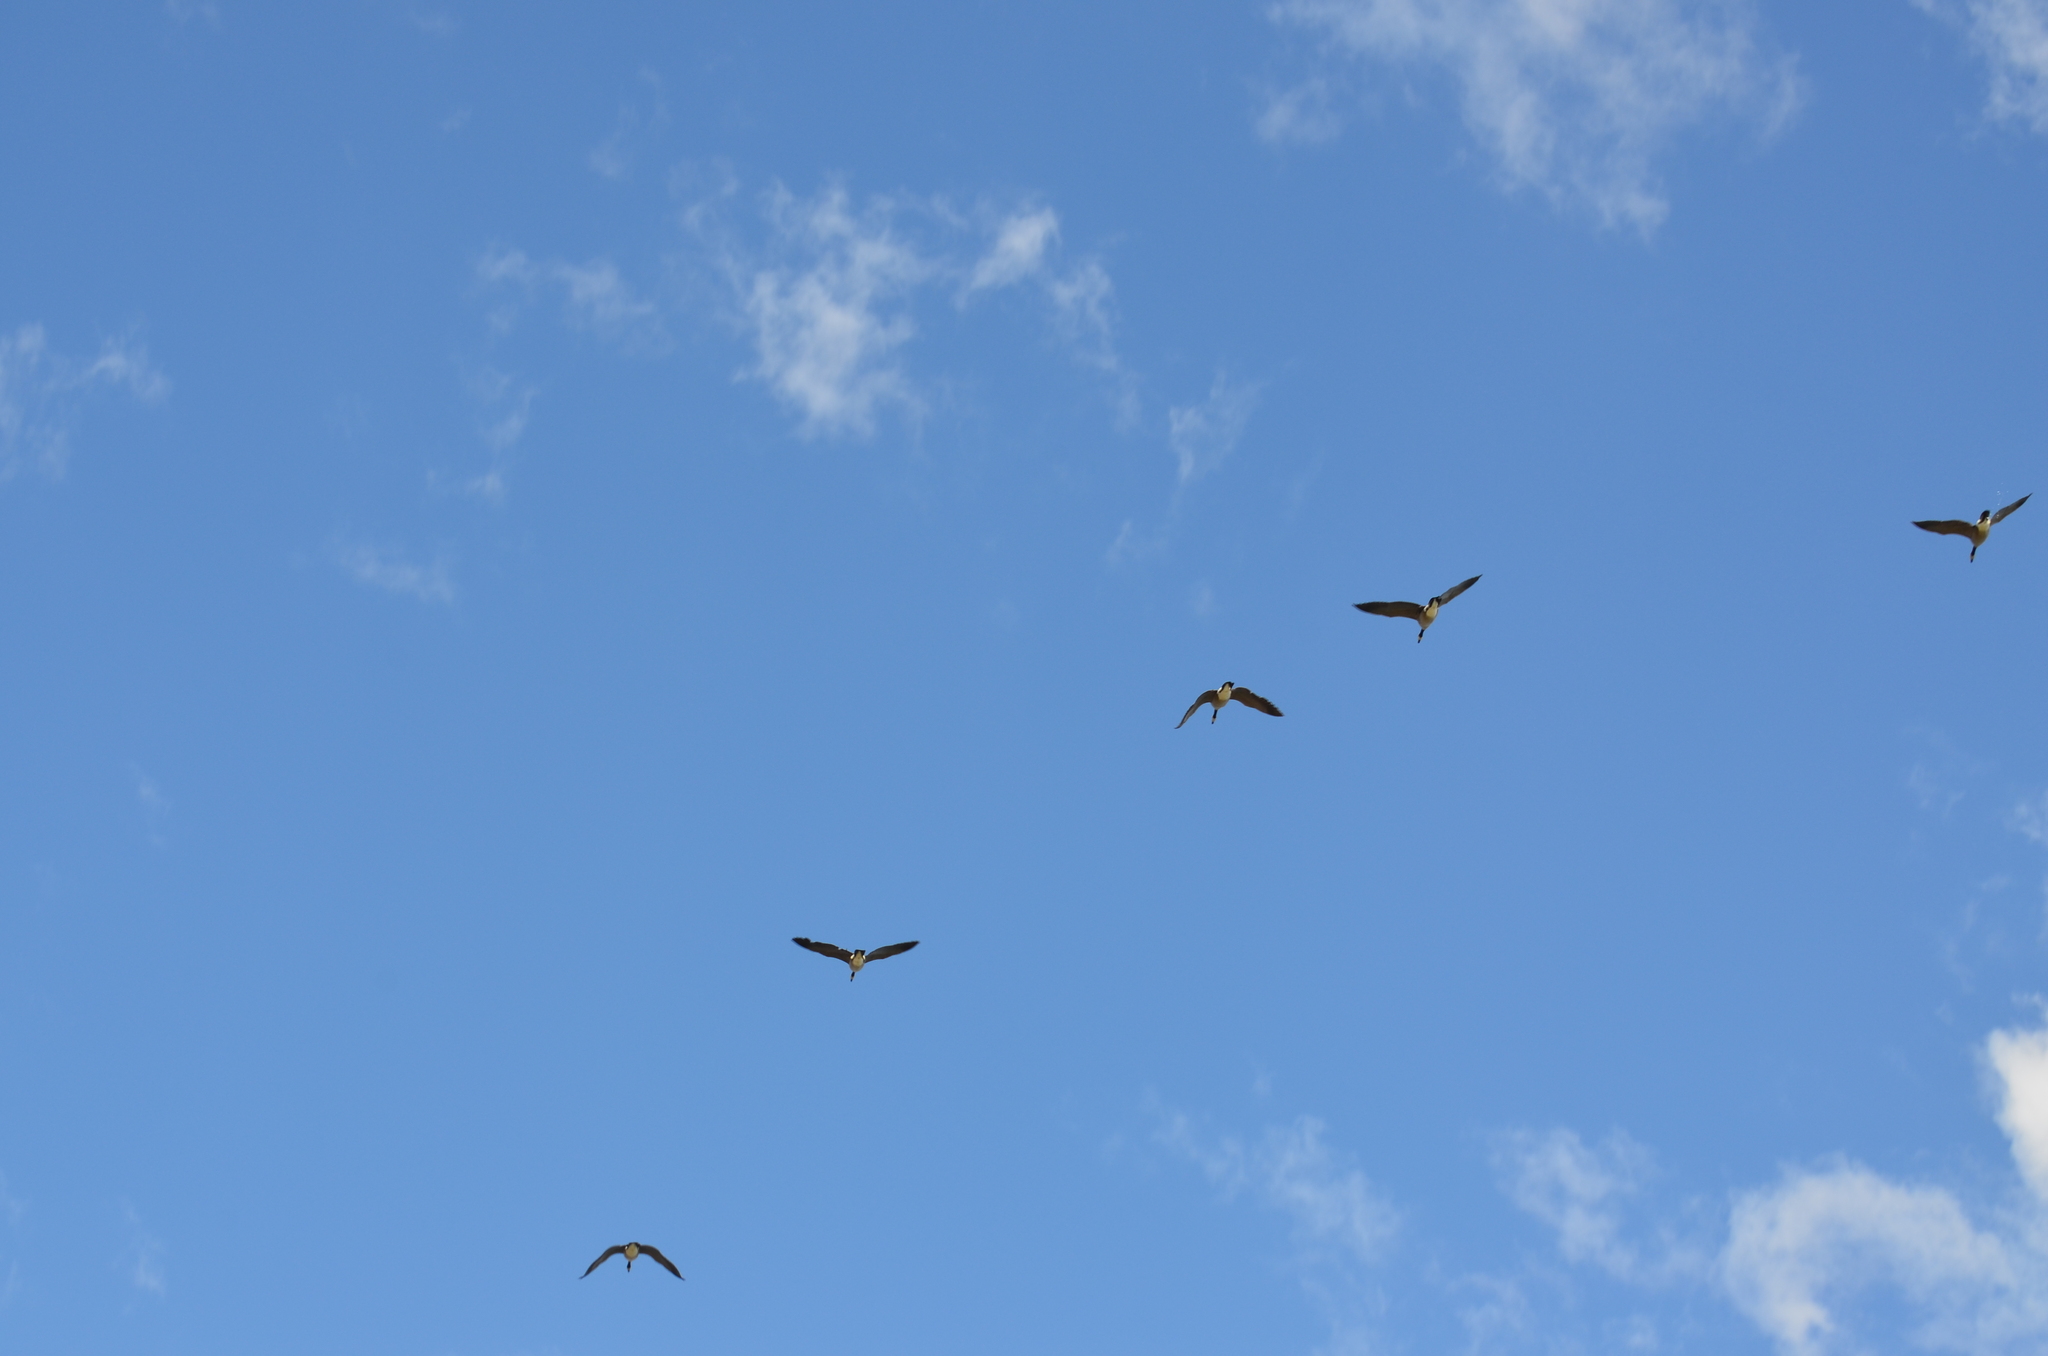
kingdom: Animalia
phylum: Chordata
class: Aves
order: Anseriformes
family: Anatidae
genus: Branta
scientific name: Branta canadensis
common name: Canada goose
